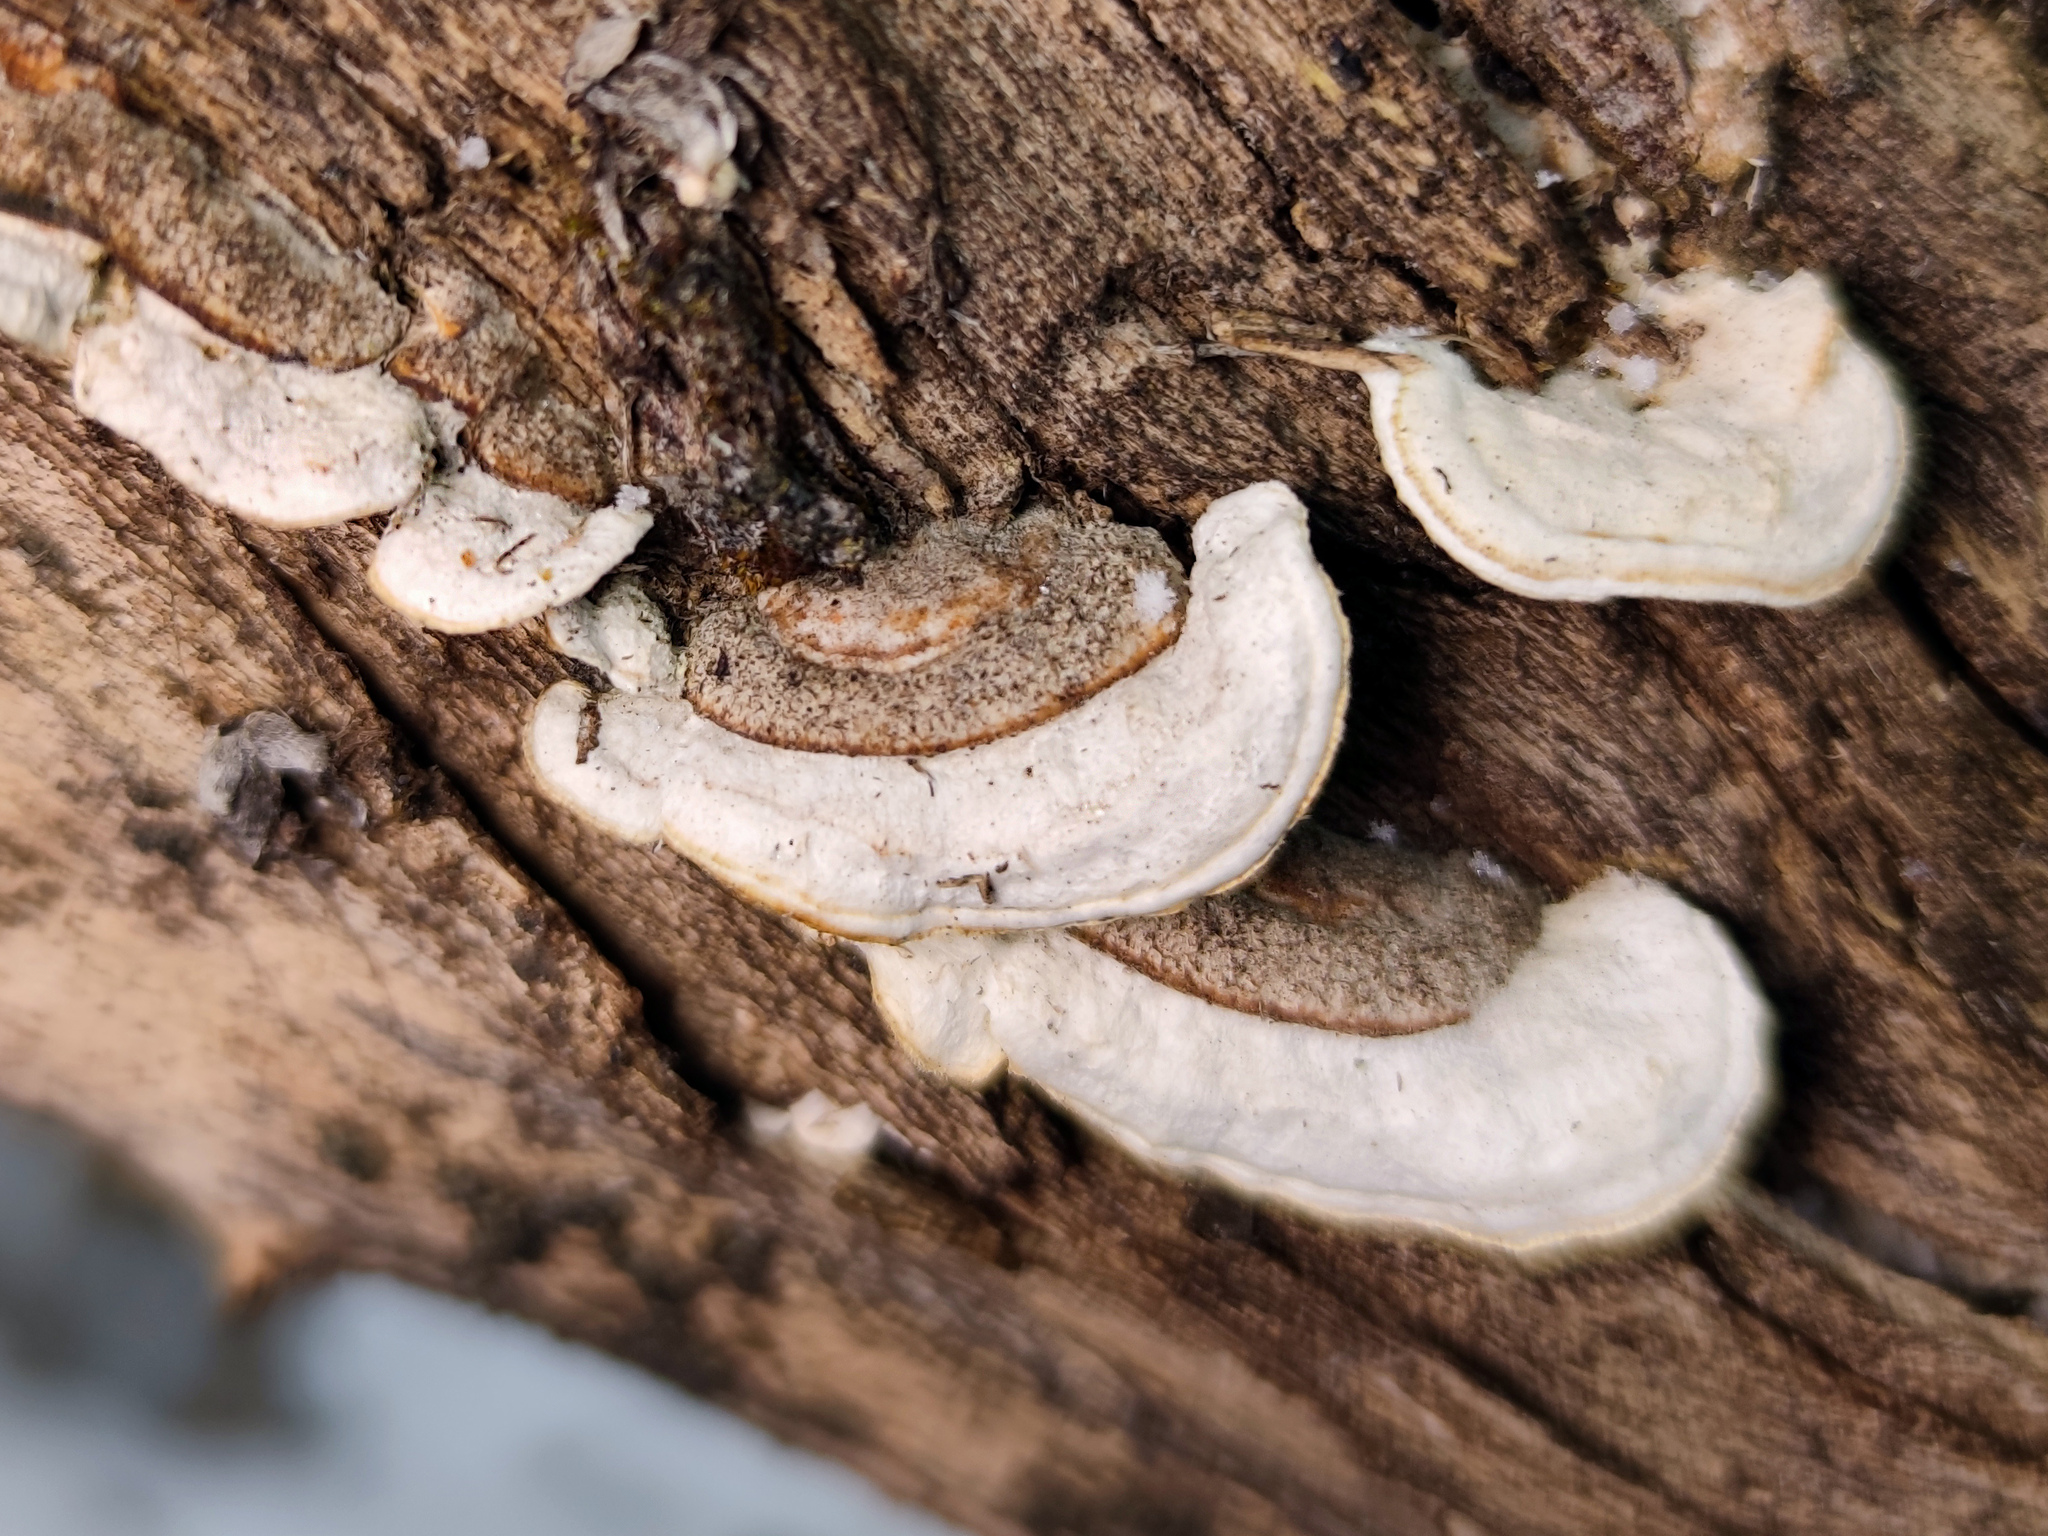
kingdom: Fungi
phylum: Basidiomycota
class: Agaricomycetes
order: Polyporales
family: Irpicaceae
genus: Vitreoporus
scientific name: Vitreoporus dichrous
